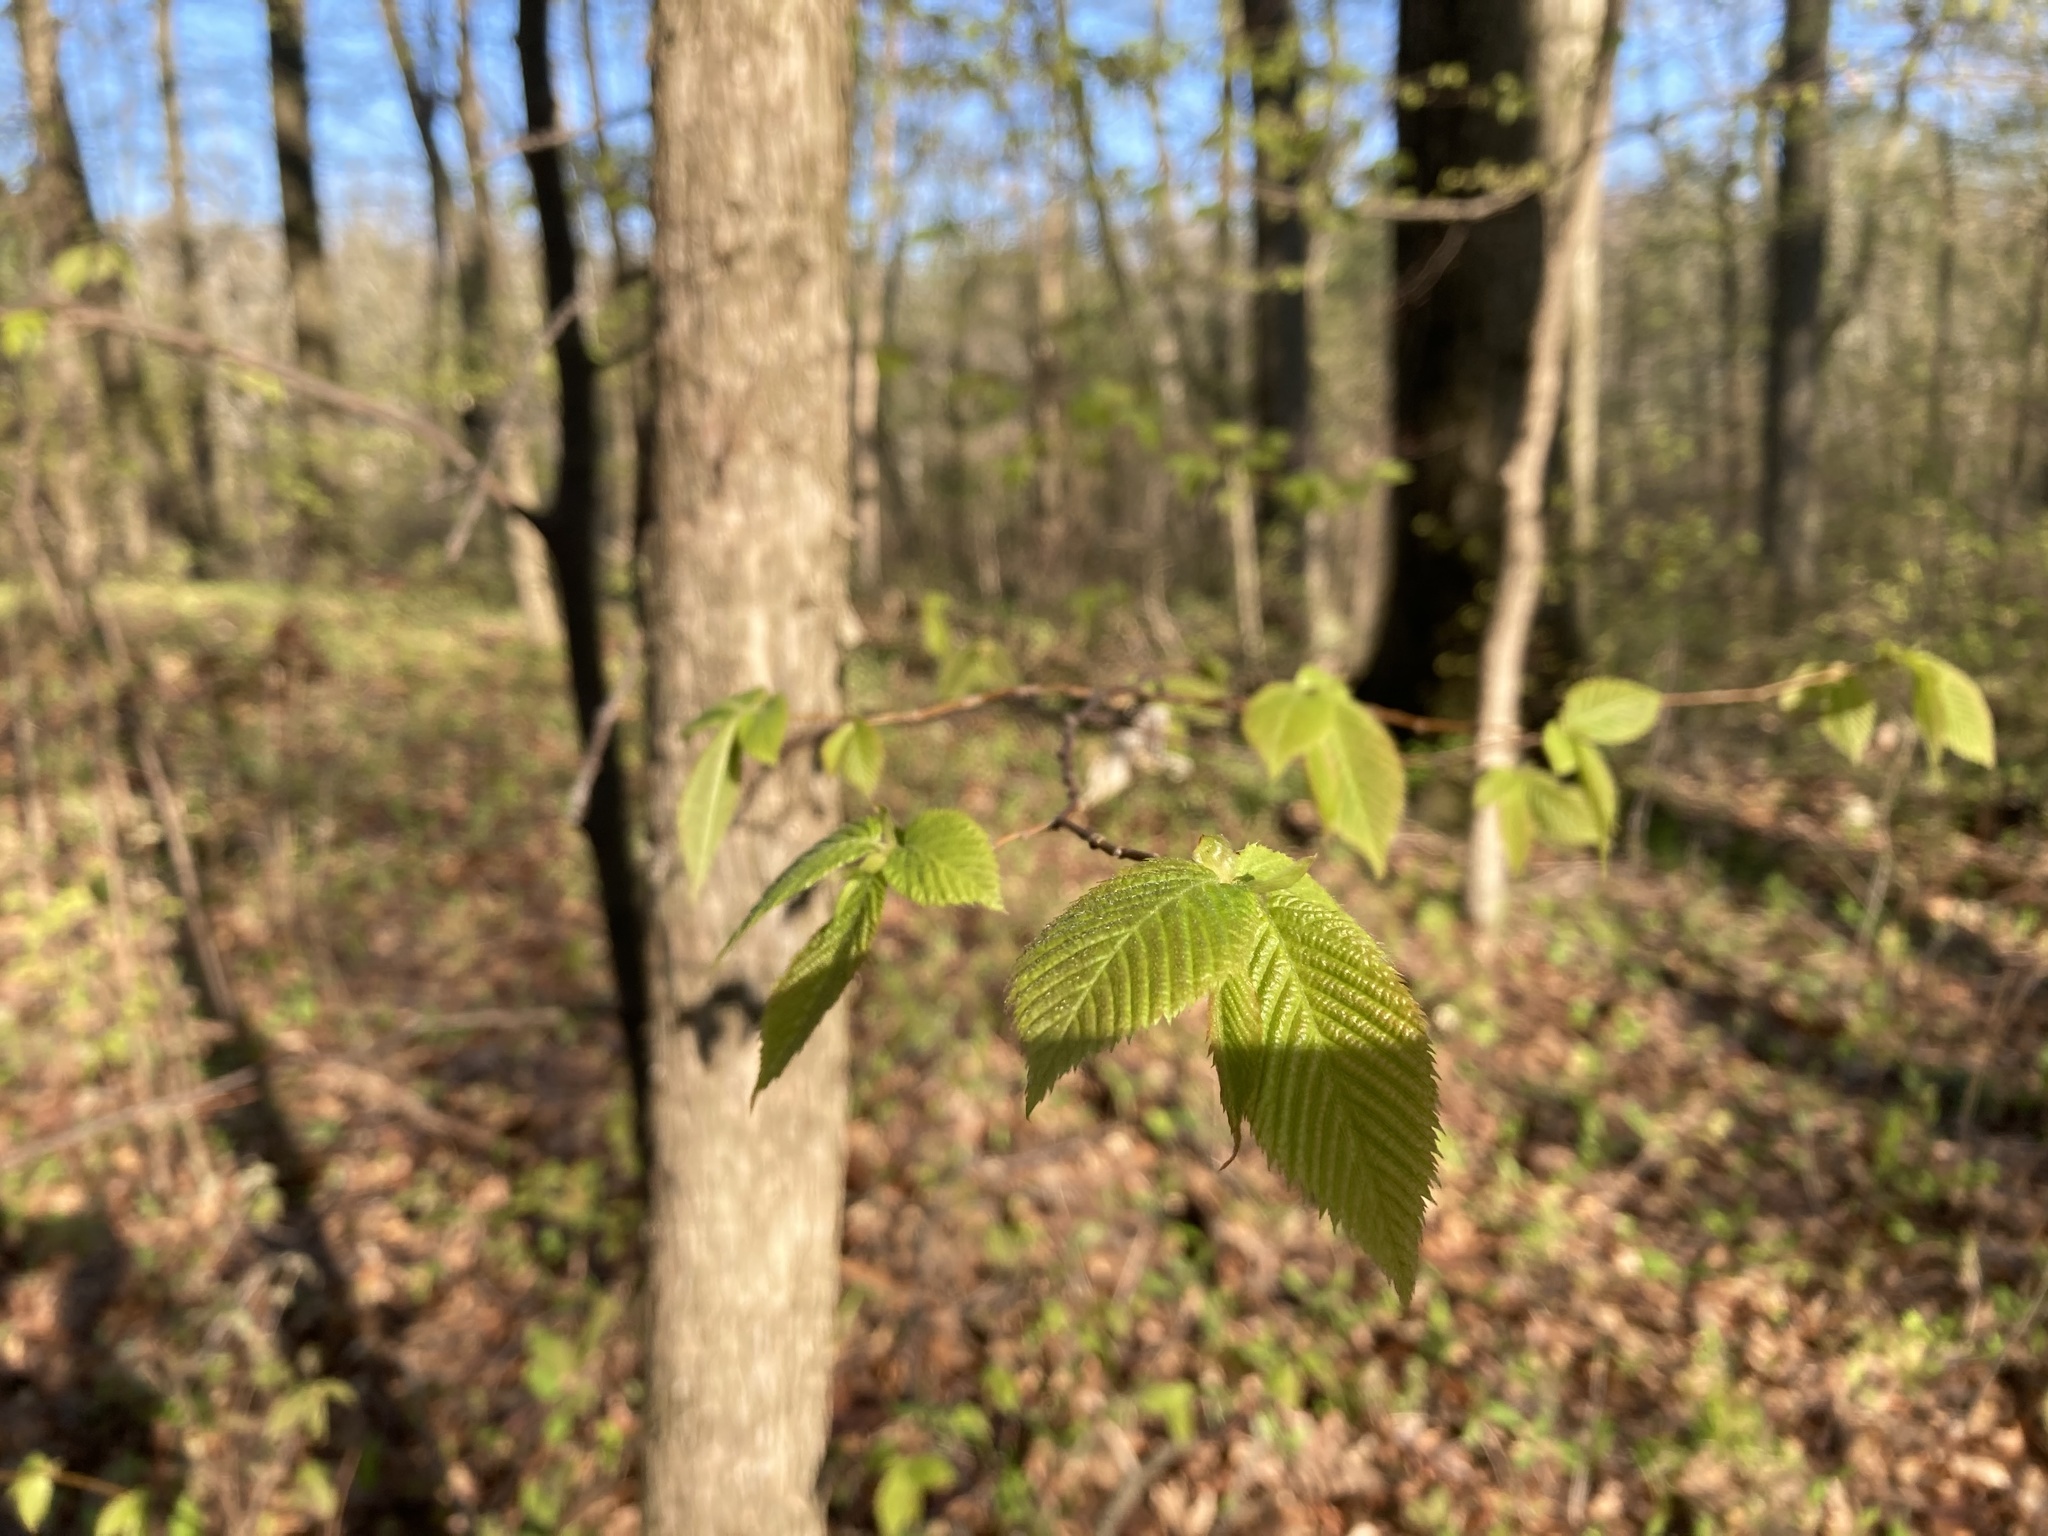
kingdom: Plantae
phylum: Tracheophyta
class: Magnoliopsida
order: Fagales
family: Betulaceae
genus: Ostrya
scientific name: Ostrya virginiana
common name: Ironwood
